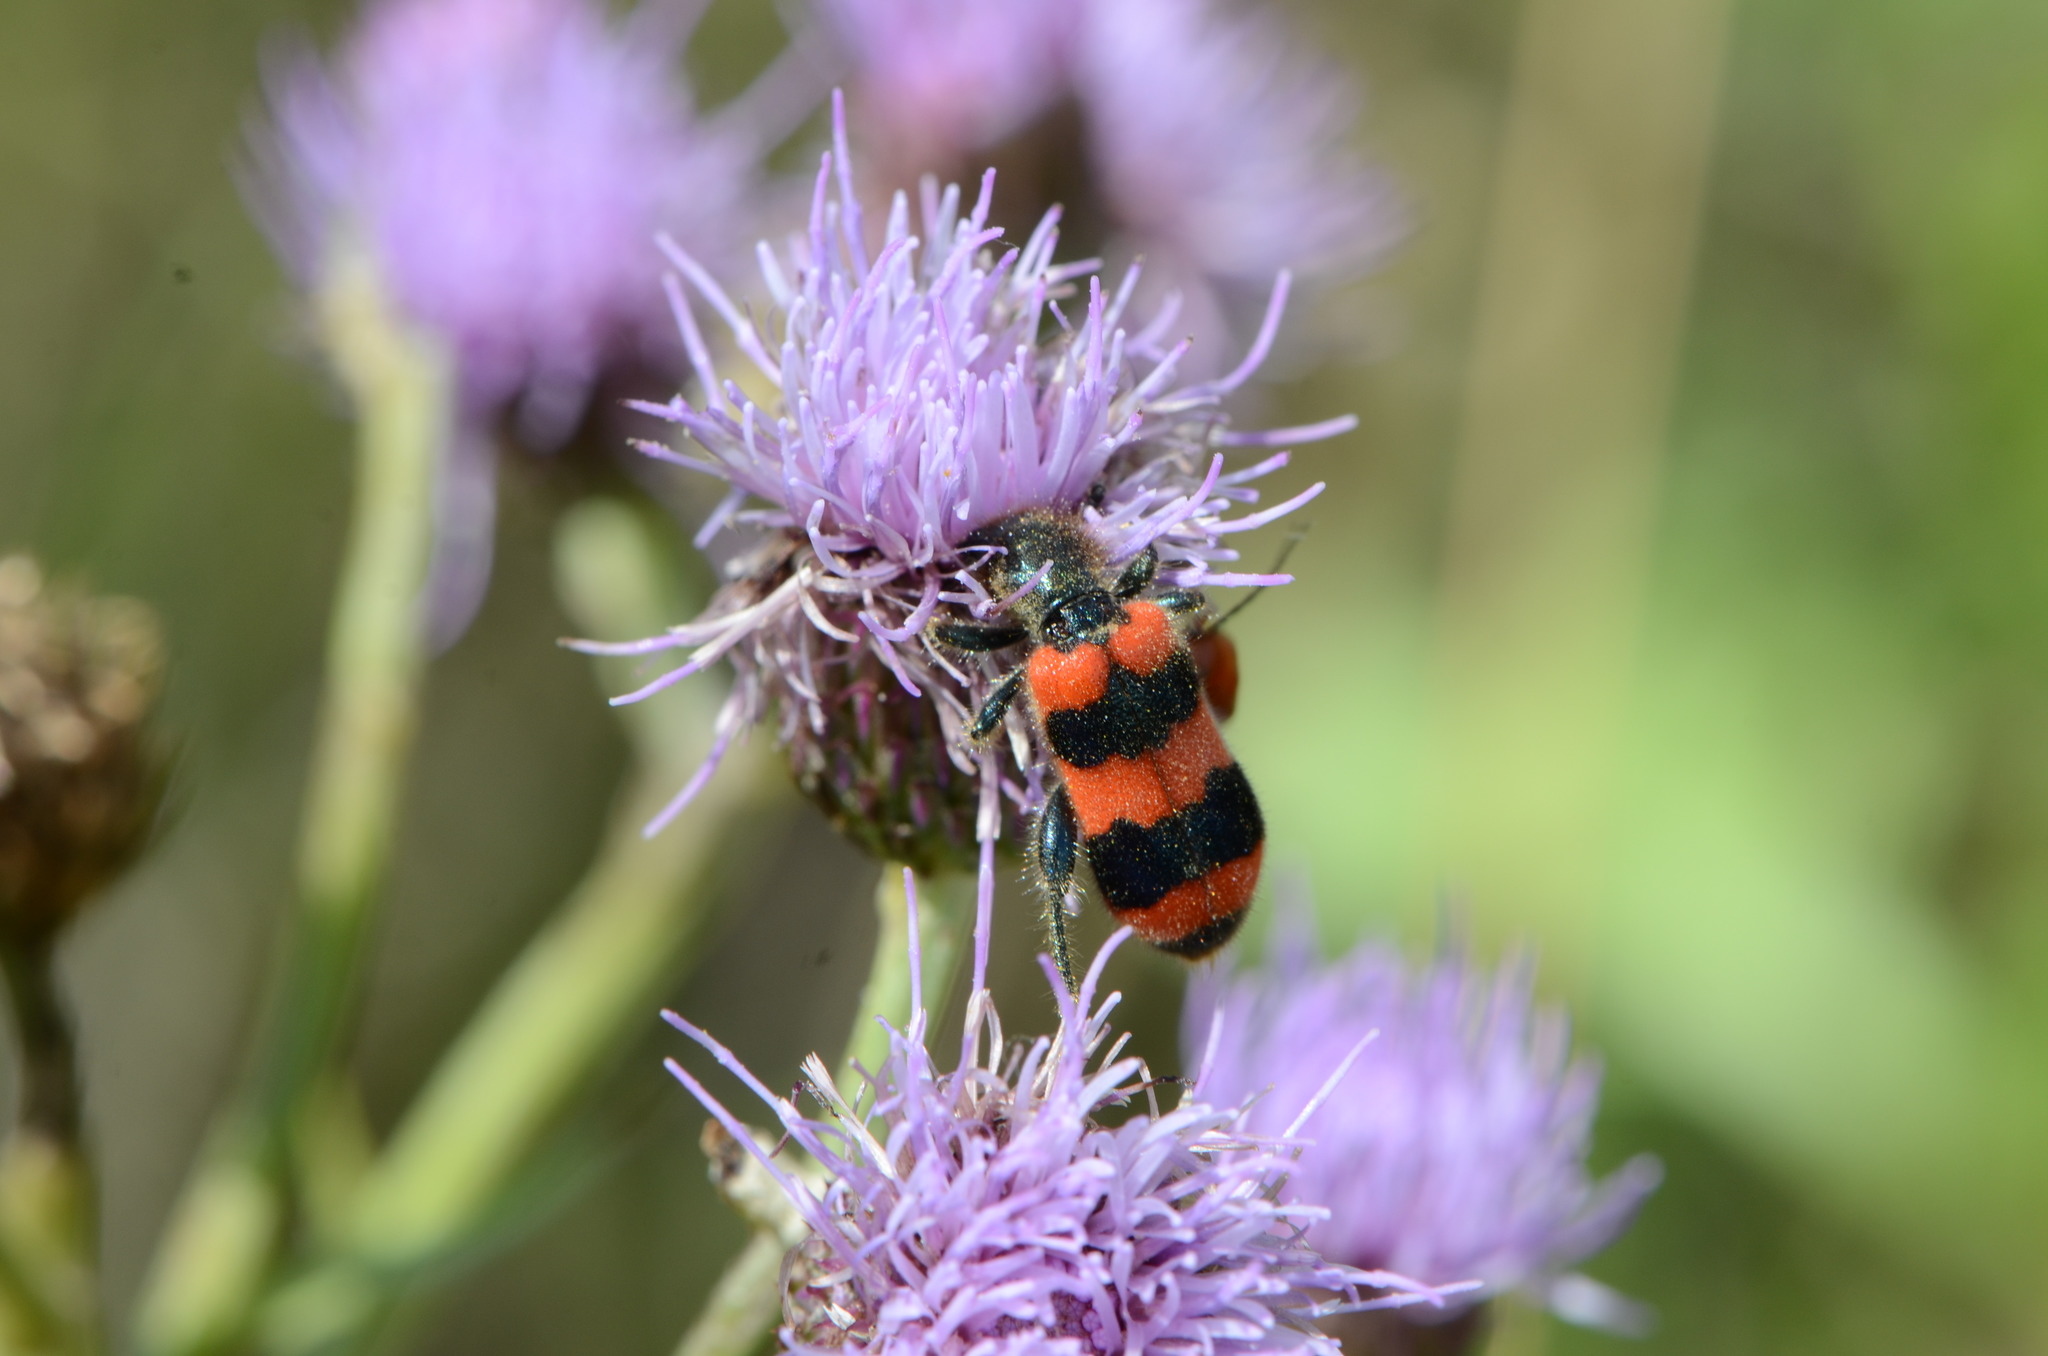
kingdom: Plantae
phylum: Tracheophyta
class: Magnoliopsida
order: Asterales
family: Asteraceae
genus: Cirsium
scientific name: Cirsium arvense
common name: Creeping thistle
